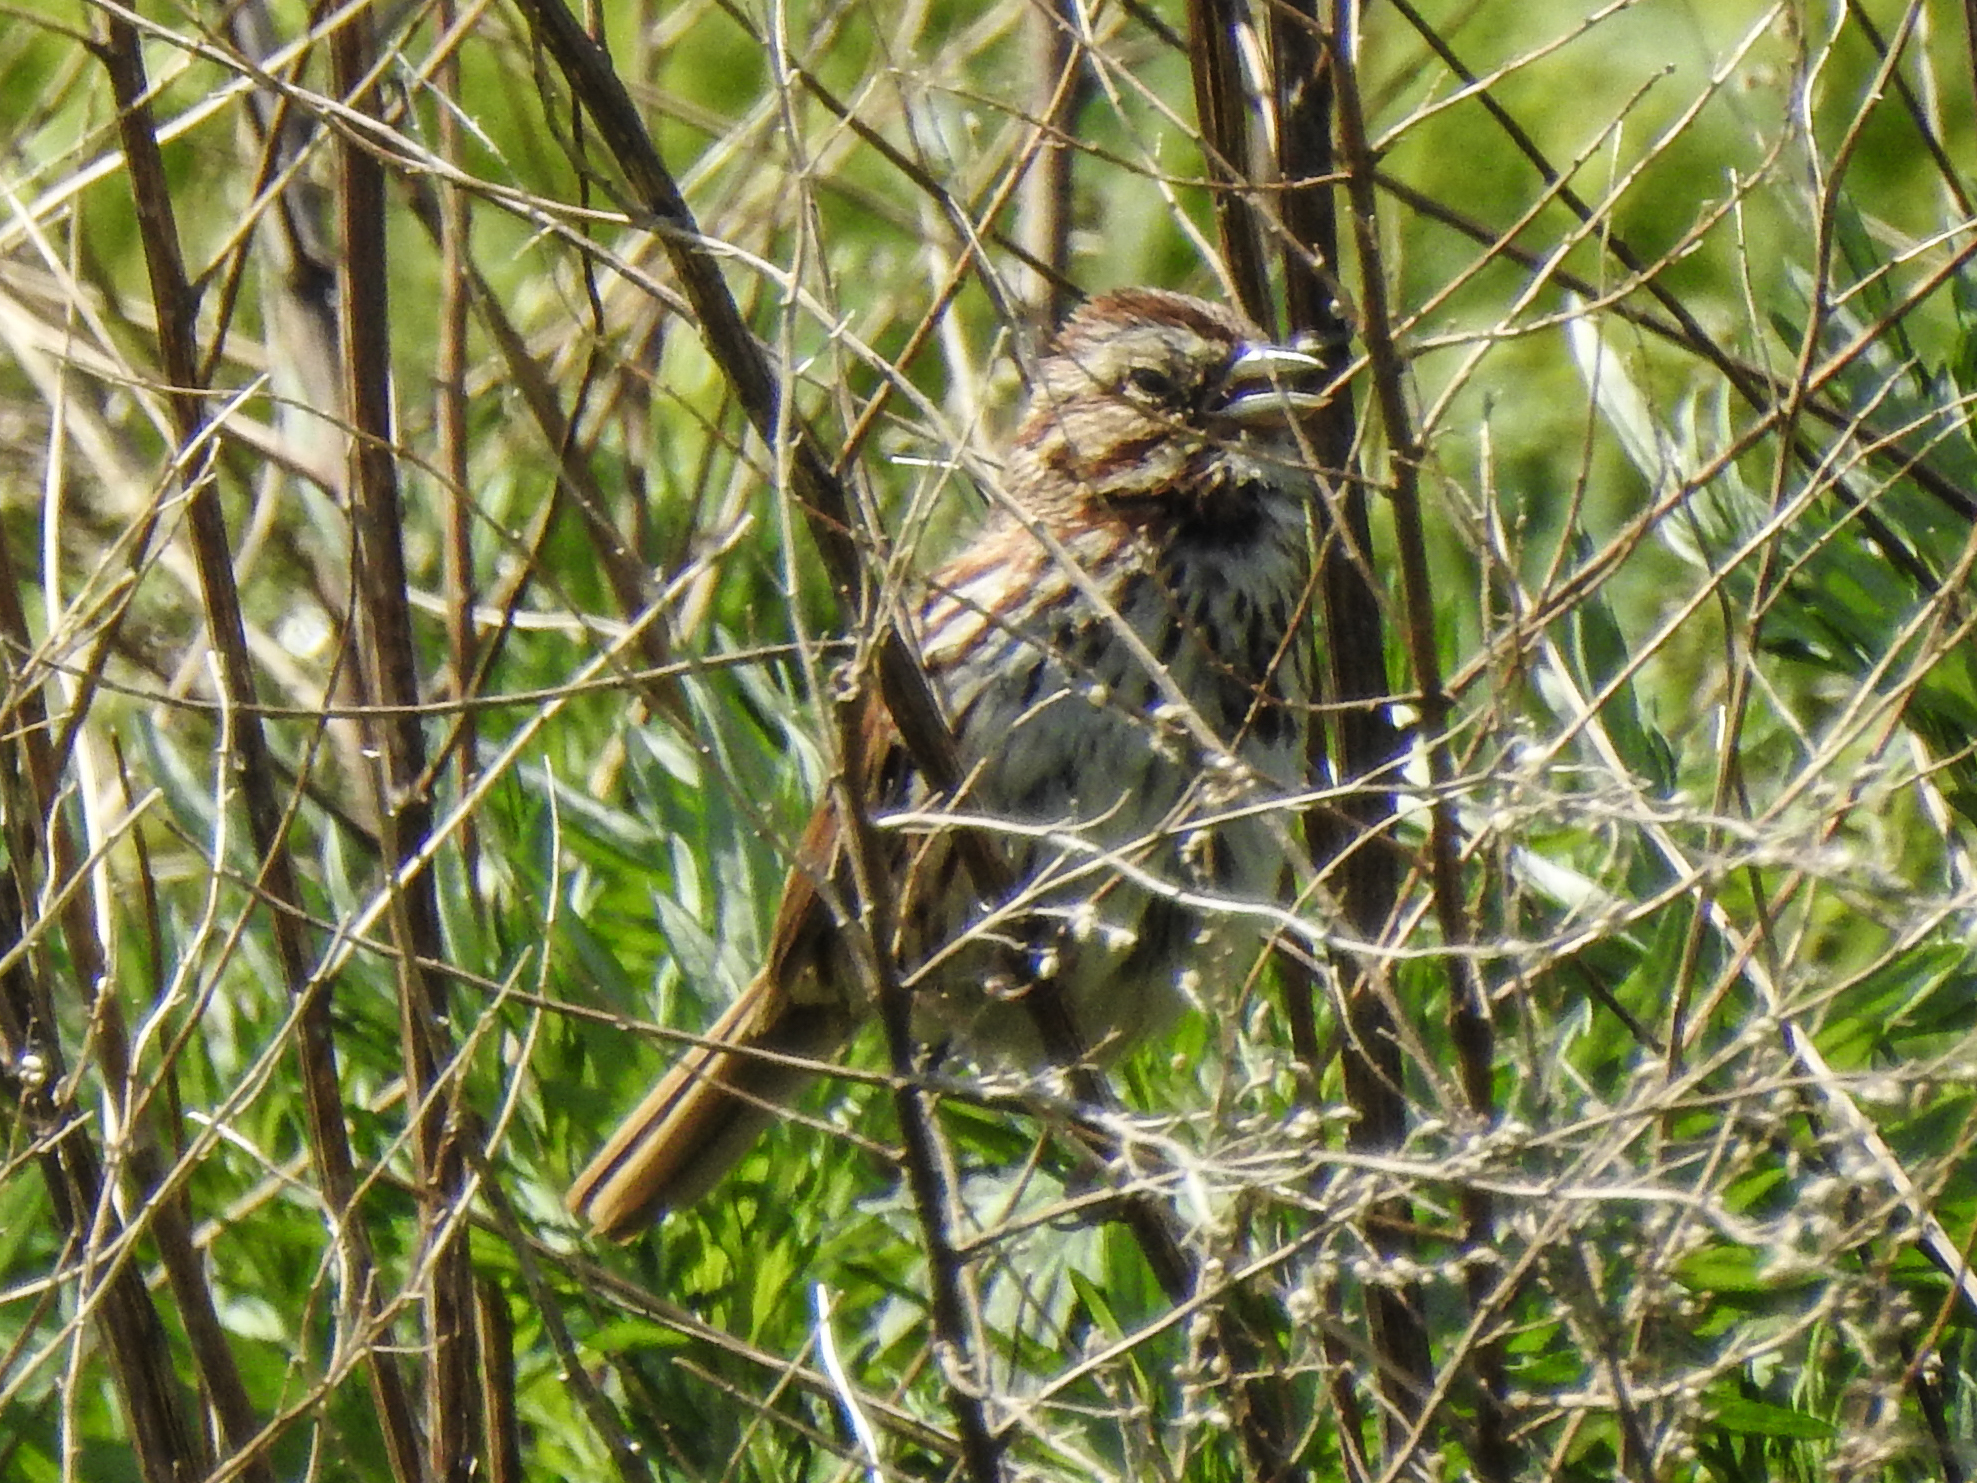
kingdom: Animalia
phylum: Chordata
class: Aves
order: Passeriformes
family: Passerellidae
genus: Melospiza
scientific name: Melospiza melodia
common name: Song sparrow
